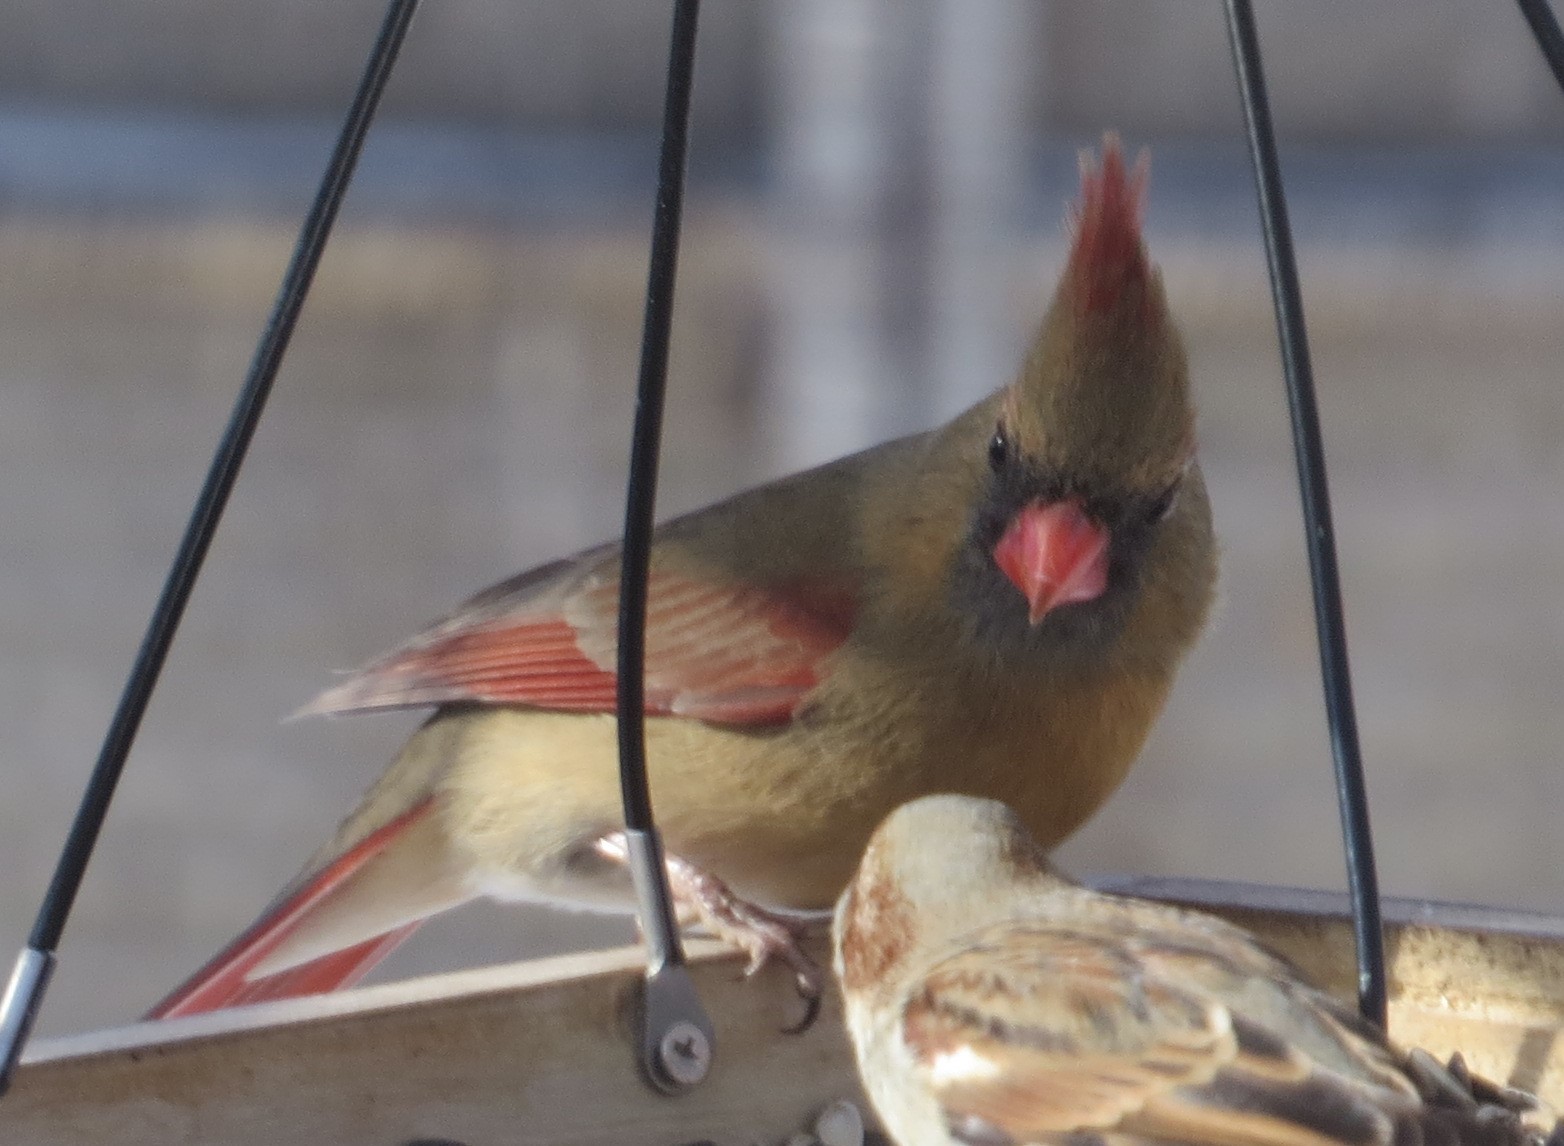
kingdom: Animalia
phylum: Chordata
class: Aves
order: Passeriformes
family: Cardinalidae
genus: Cardinalis
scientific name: Cardinalis cardinalis
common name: Northern cardinal
